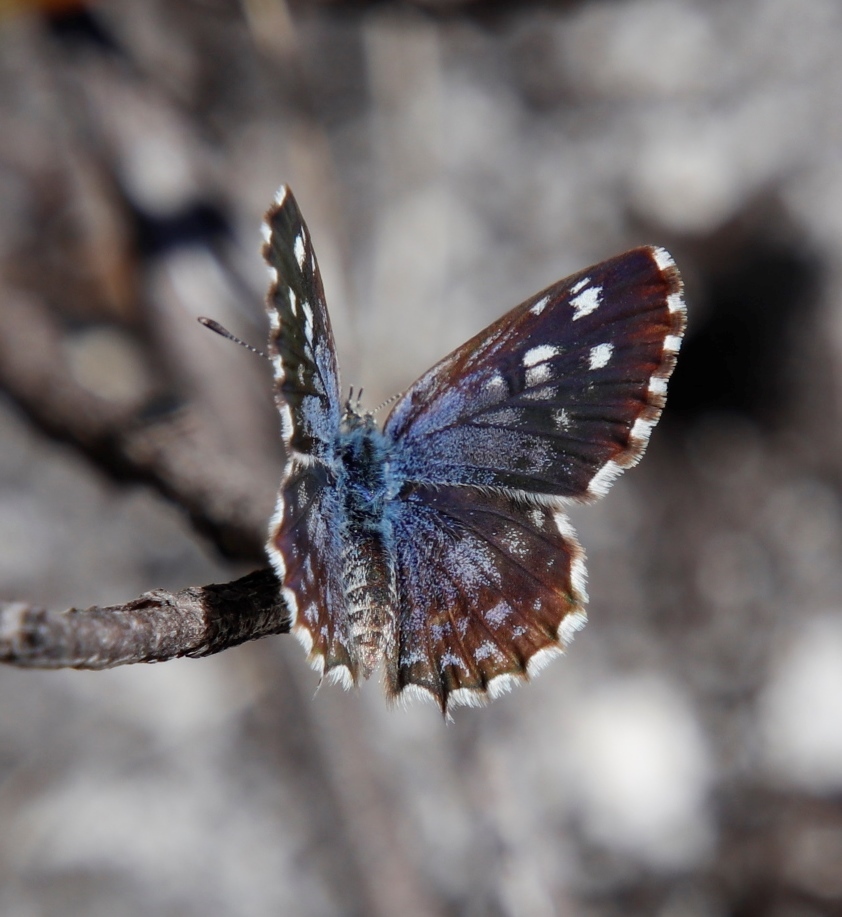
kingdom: Animalia
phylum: Arthropoda
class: Insecta
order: Lepidoptera
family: Lycaenidae
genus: Tarucus
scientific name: Tarucus thespis
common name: Vivid dotted blue
